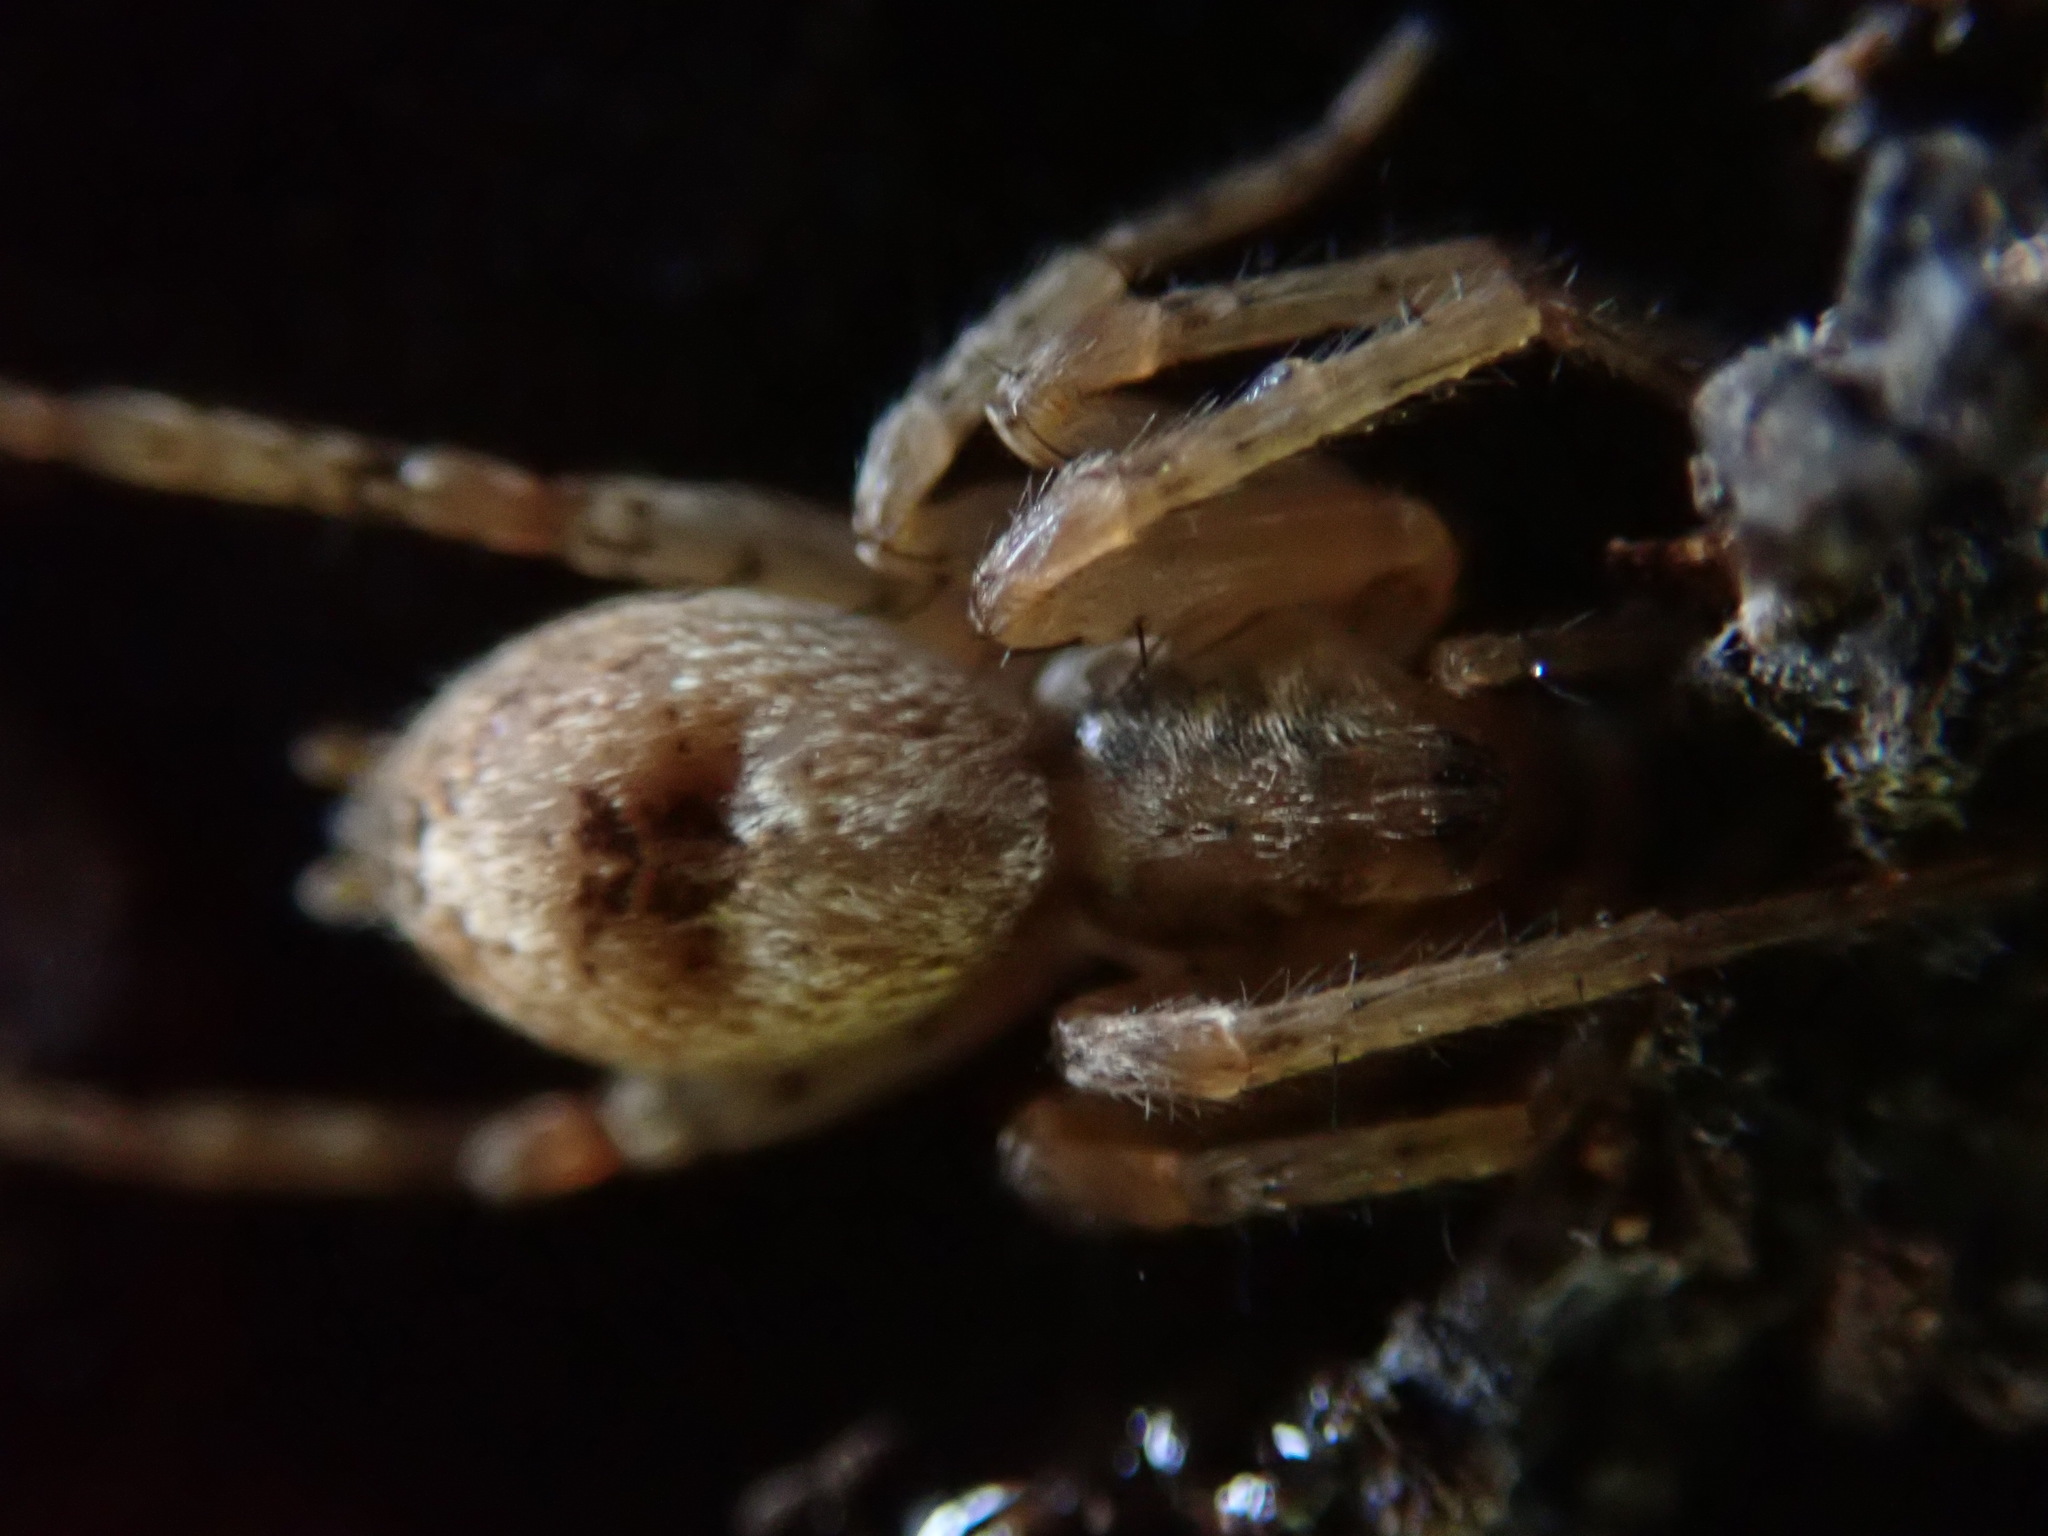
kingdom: Animalia
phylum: Arthropoda
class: Arachnida
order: Araneae
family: Anyphaenidae
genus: Anyphaena
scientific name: Anyphaena accentuata
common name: Buzzing spider
